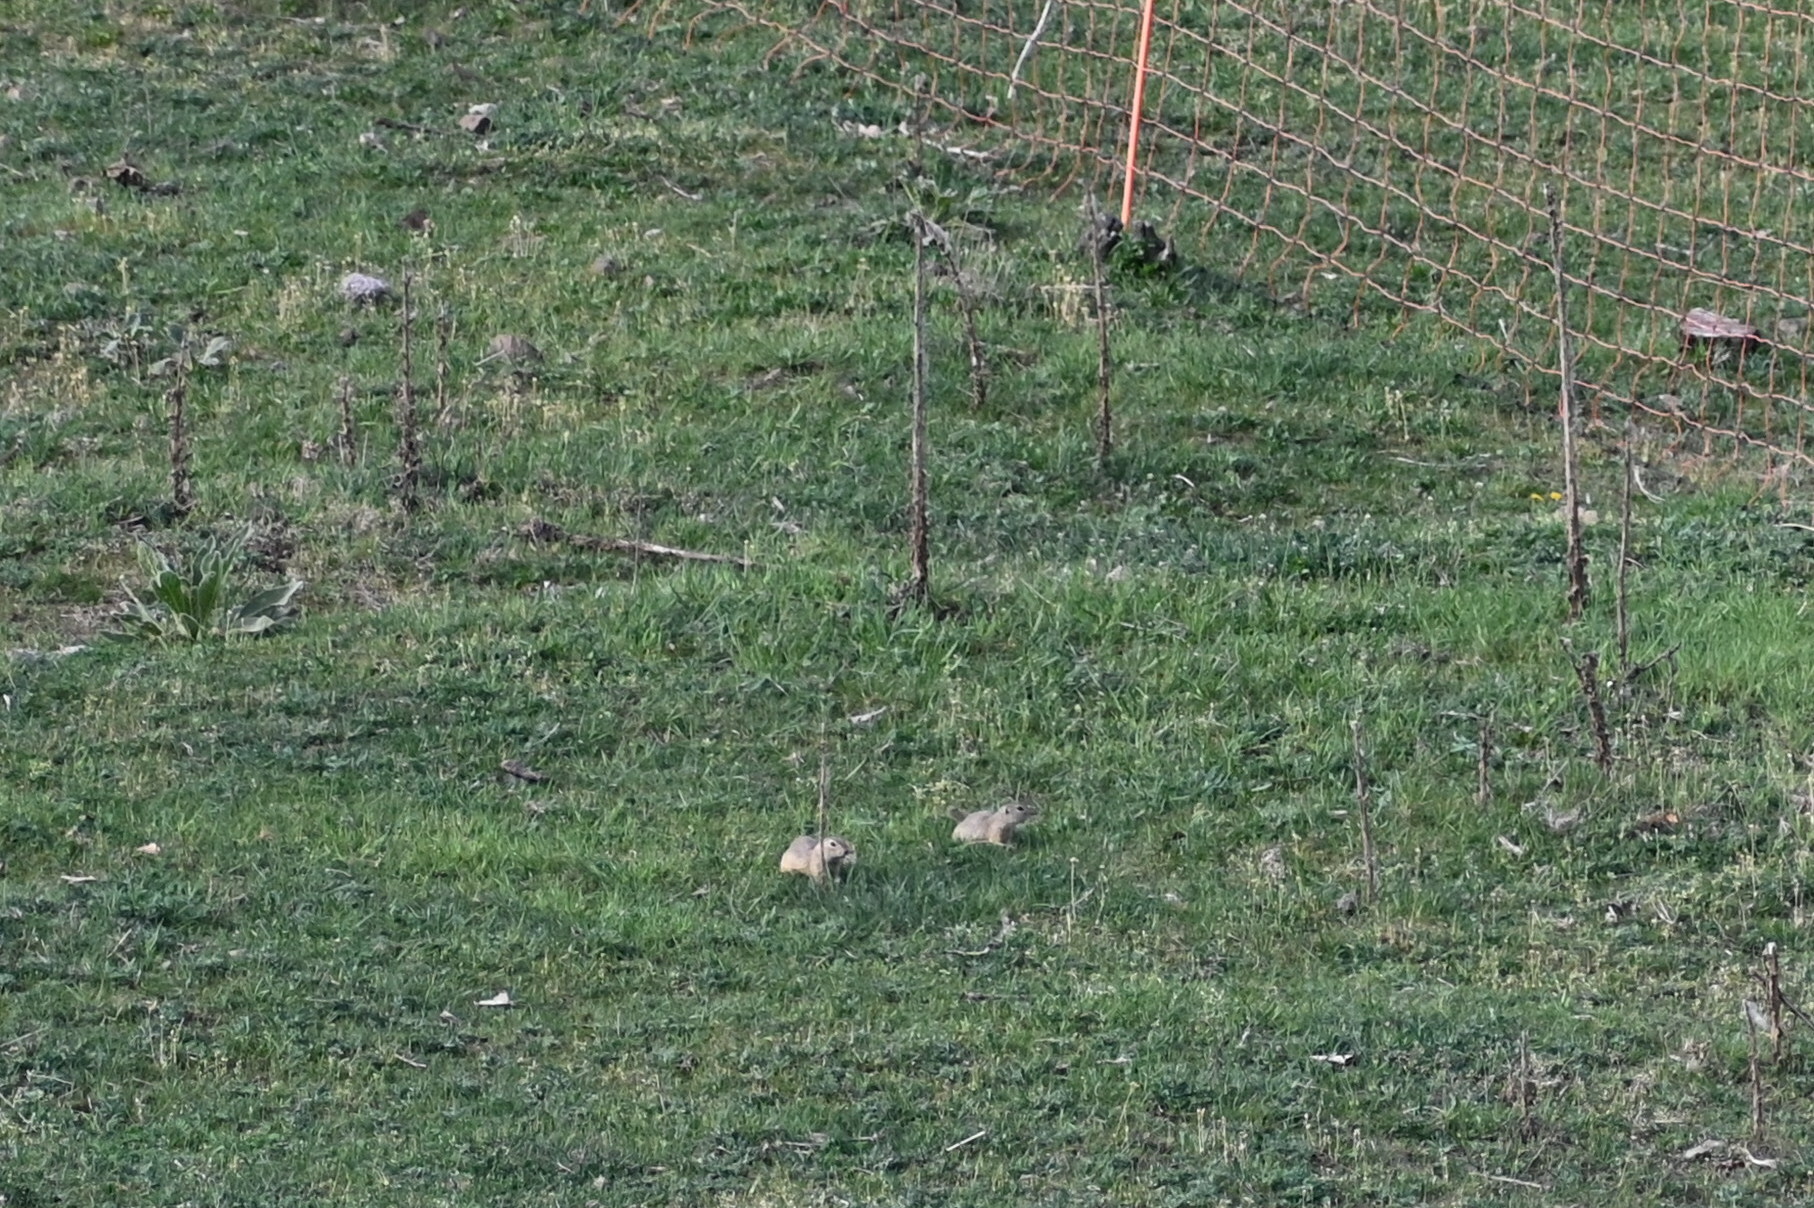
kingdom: Animalia
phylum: Chordata
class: Mammalia
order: Rodentia
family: Sciuridae
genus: Spermophilus
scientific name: Spermophilus citellus
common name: European ground squirrel
